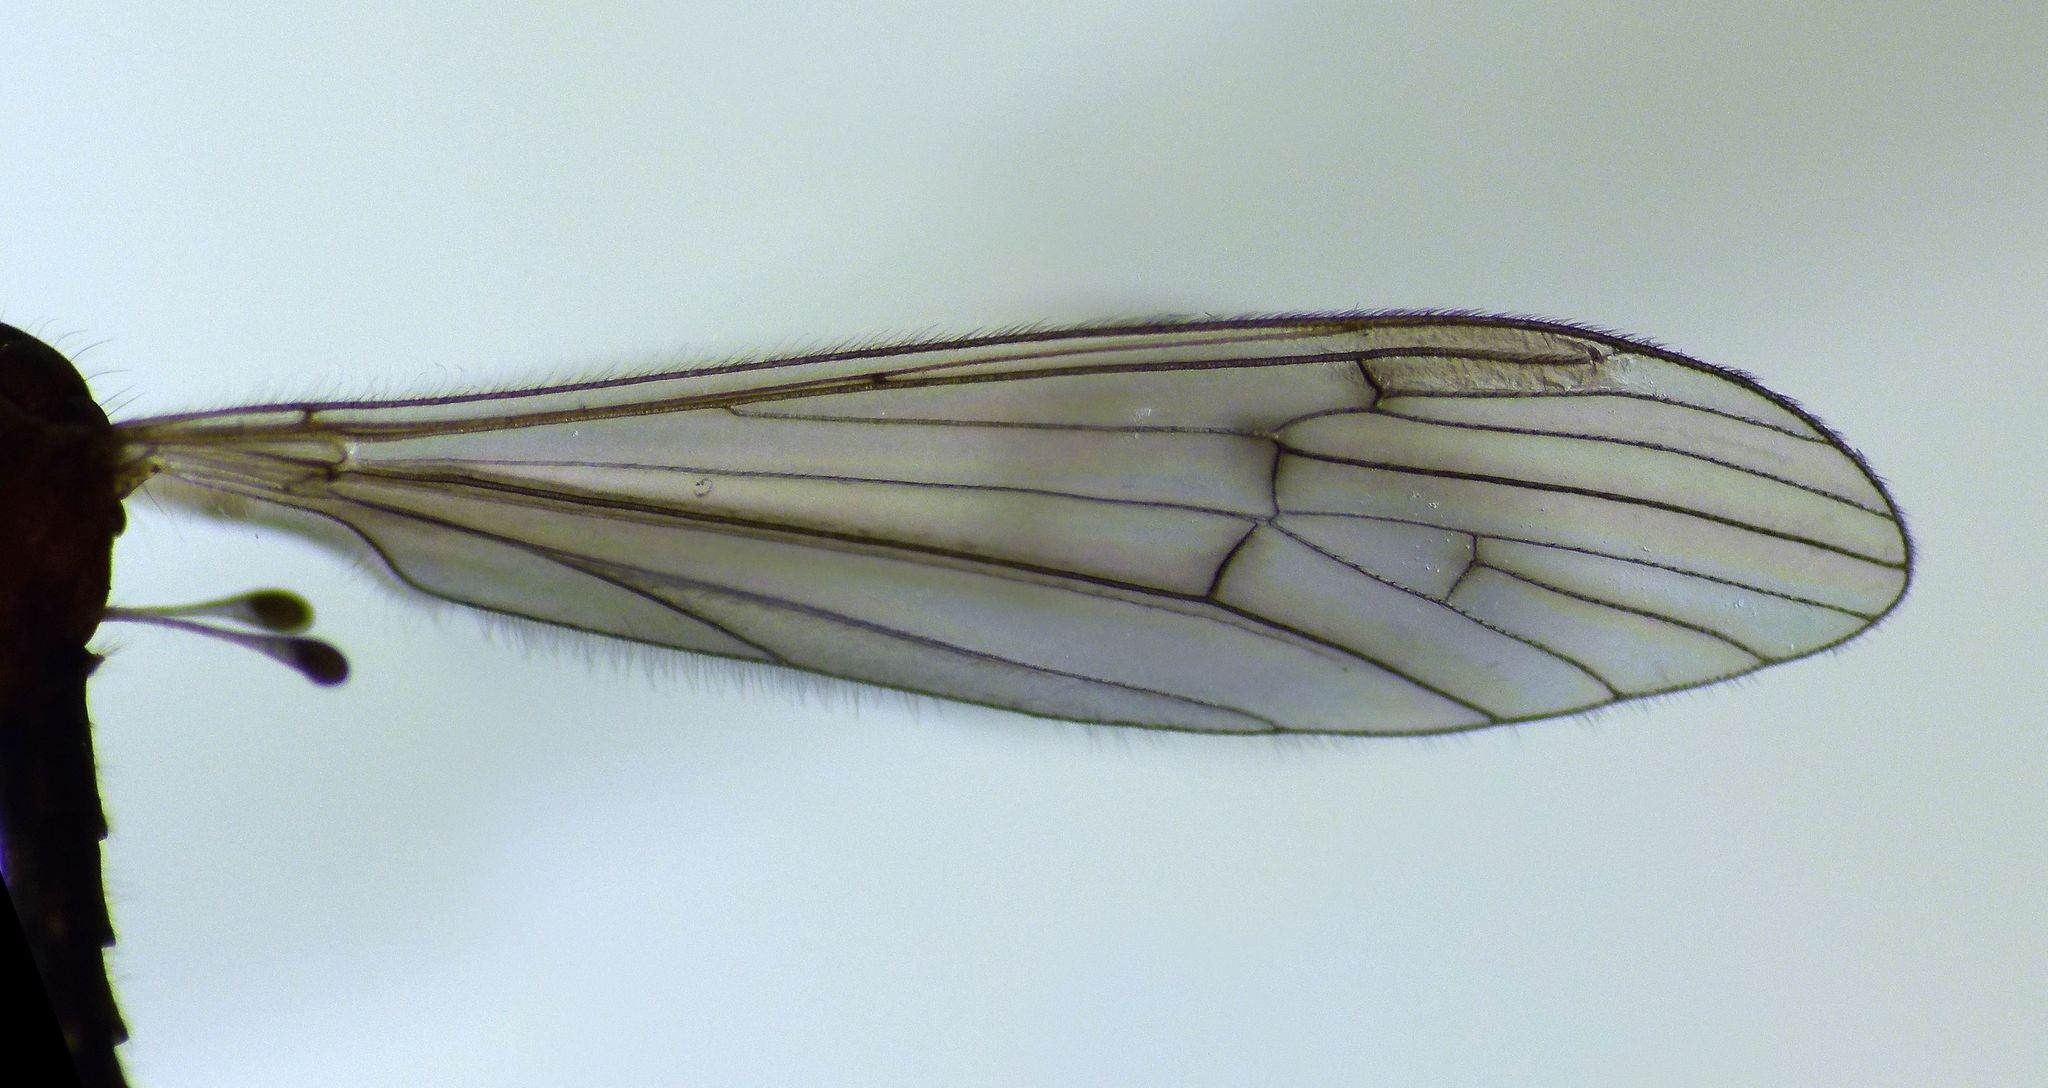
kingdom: Animalia
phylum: Arthropoda
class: Insecta
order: Diptera
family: Limoniidae
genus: Symplecta
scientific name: Symplecta confluens
